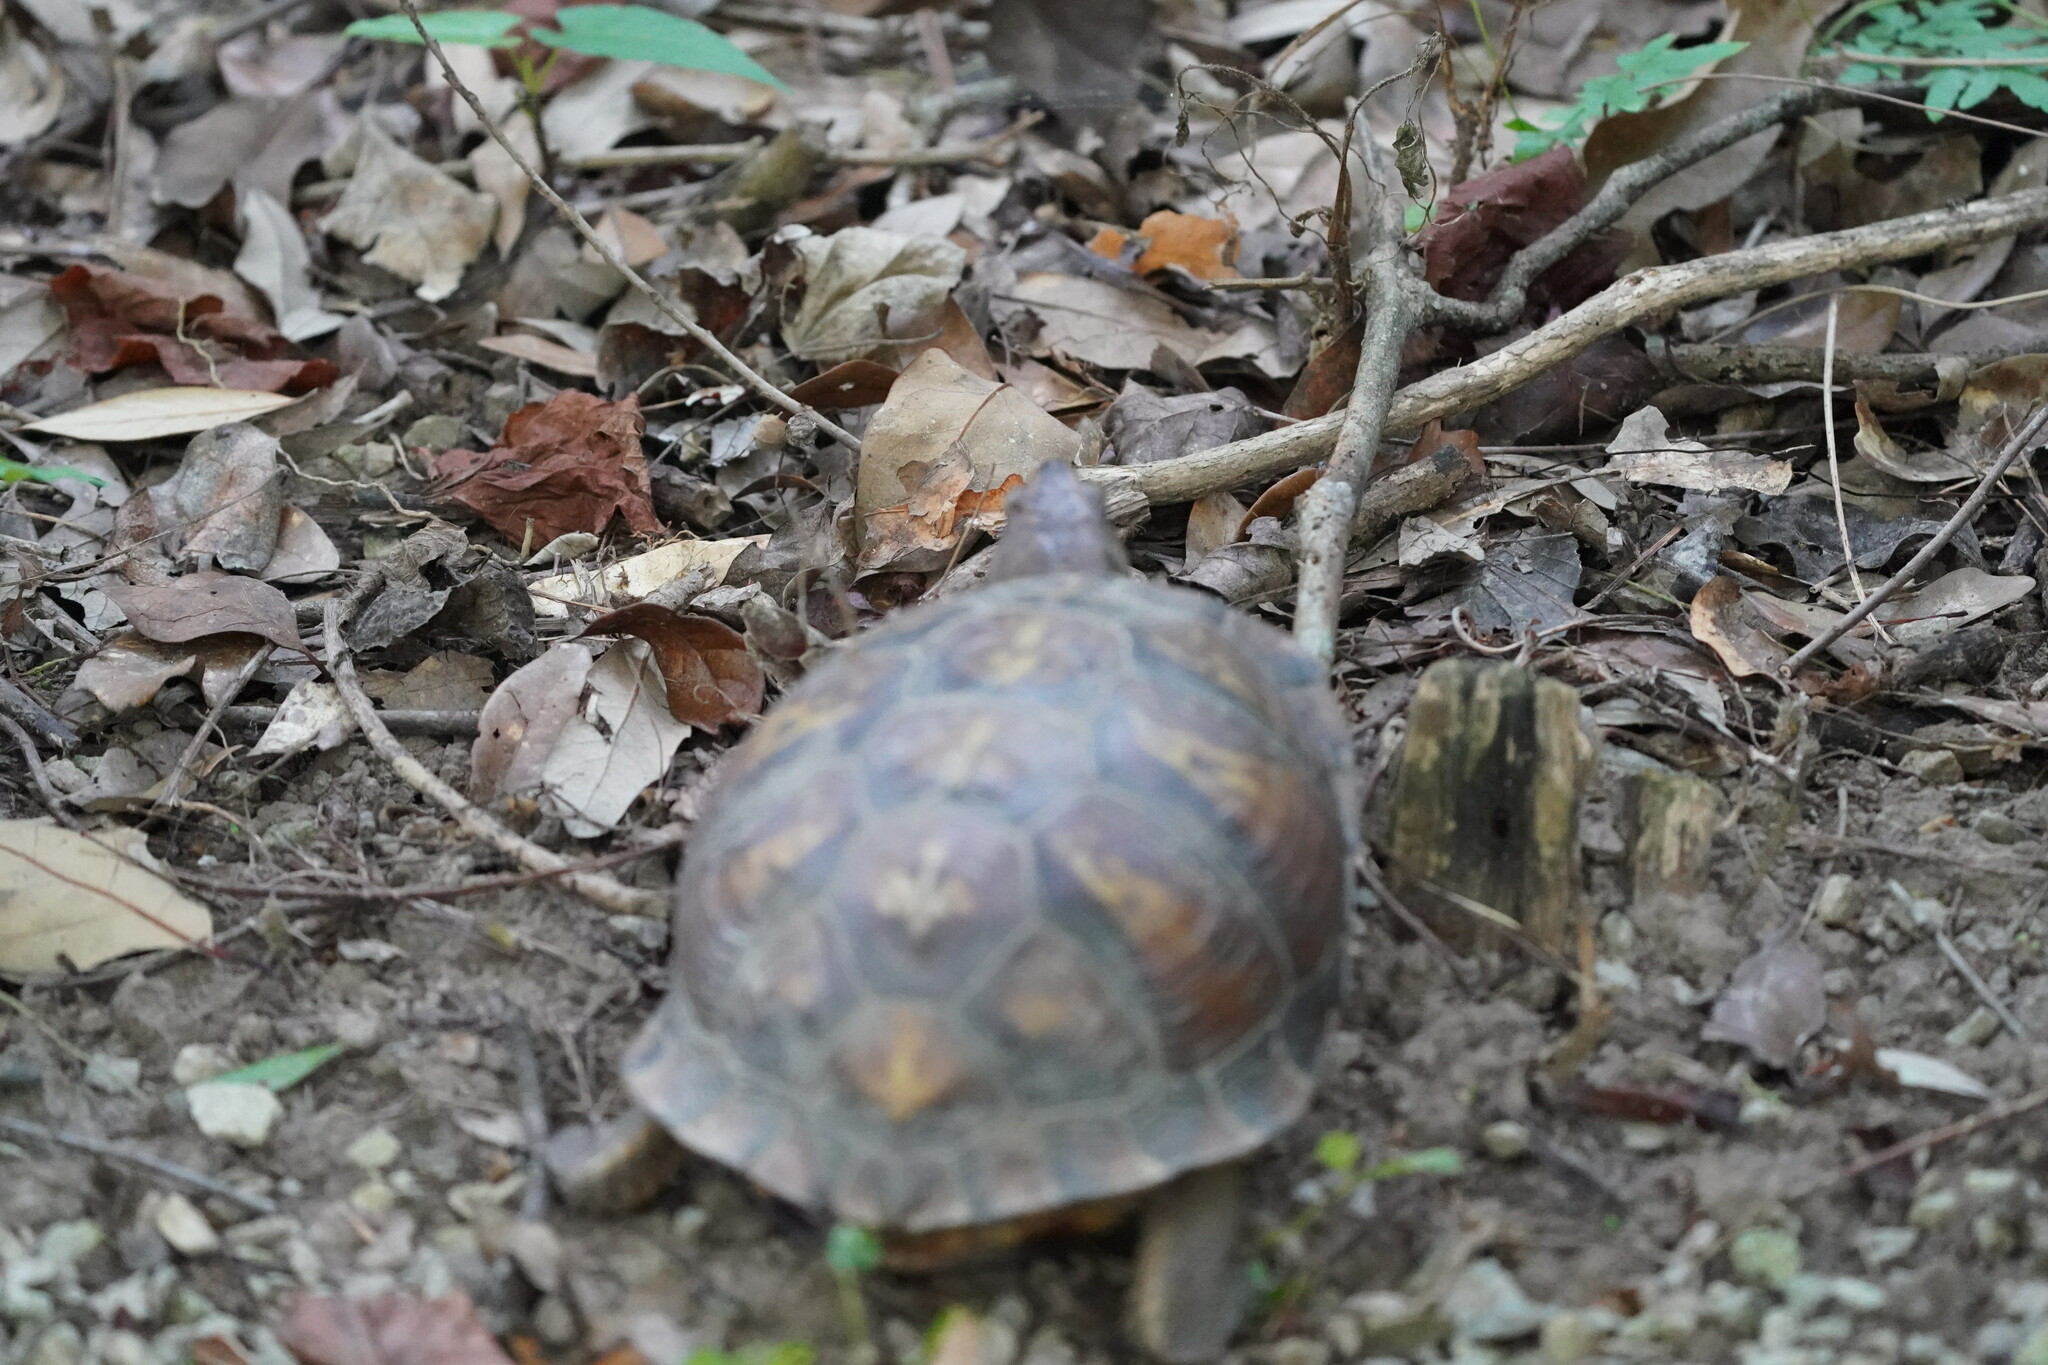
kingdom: Animalia
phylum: Chordata
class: Testudines
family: Emydidae
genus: Terrapene
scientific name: Terrapene carolina
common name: Common box turtle
